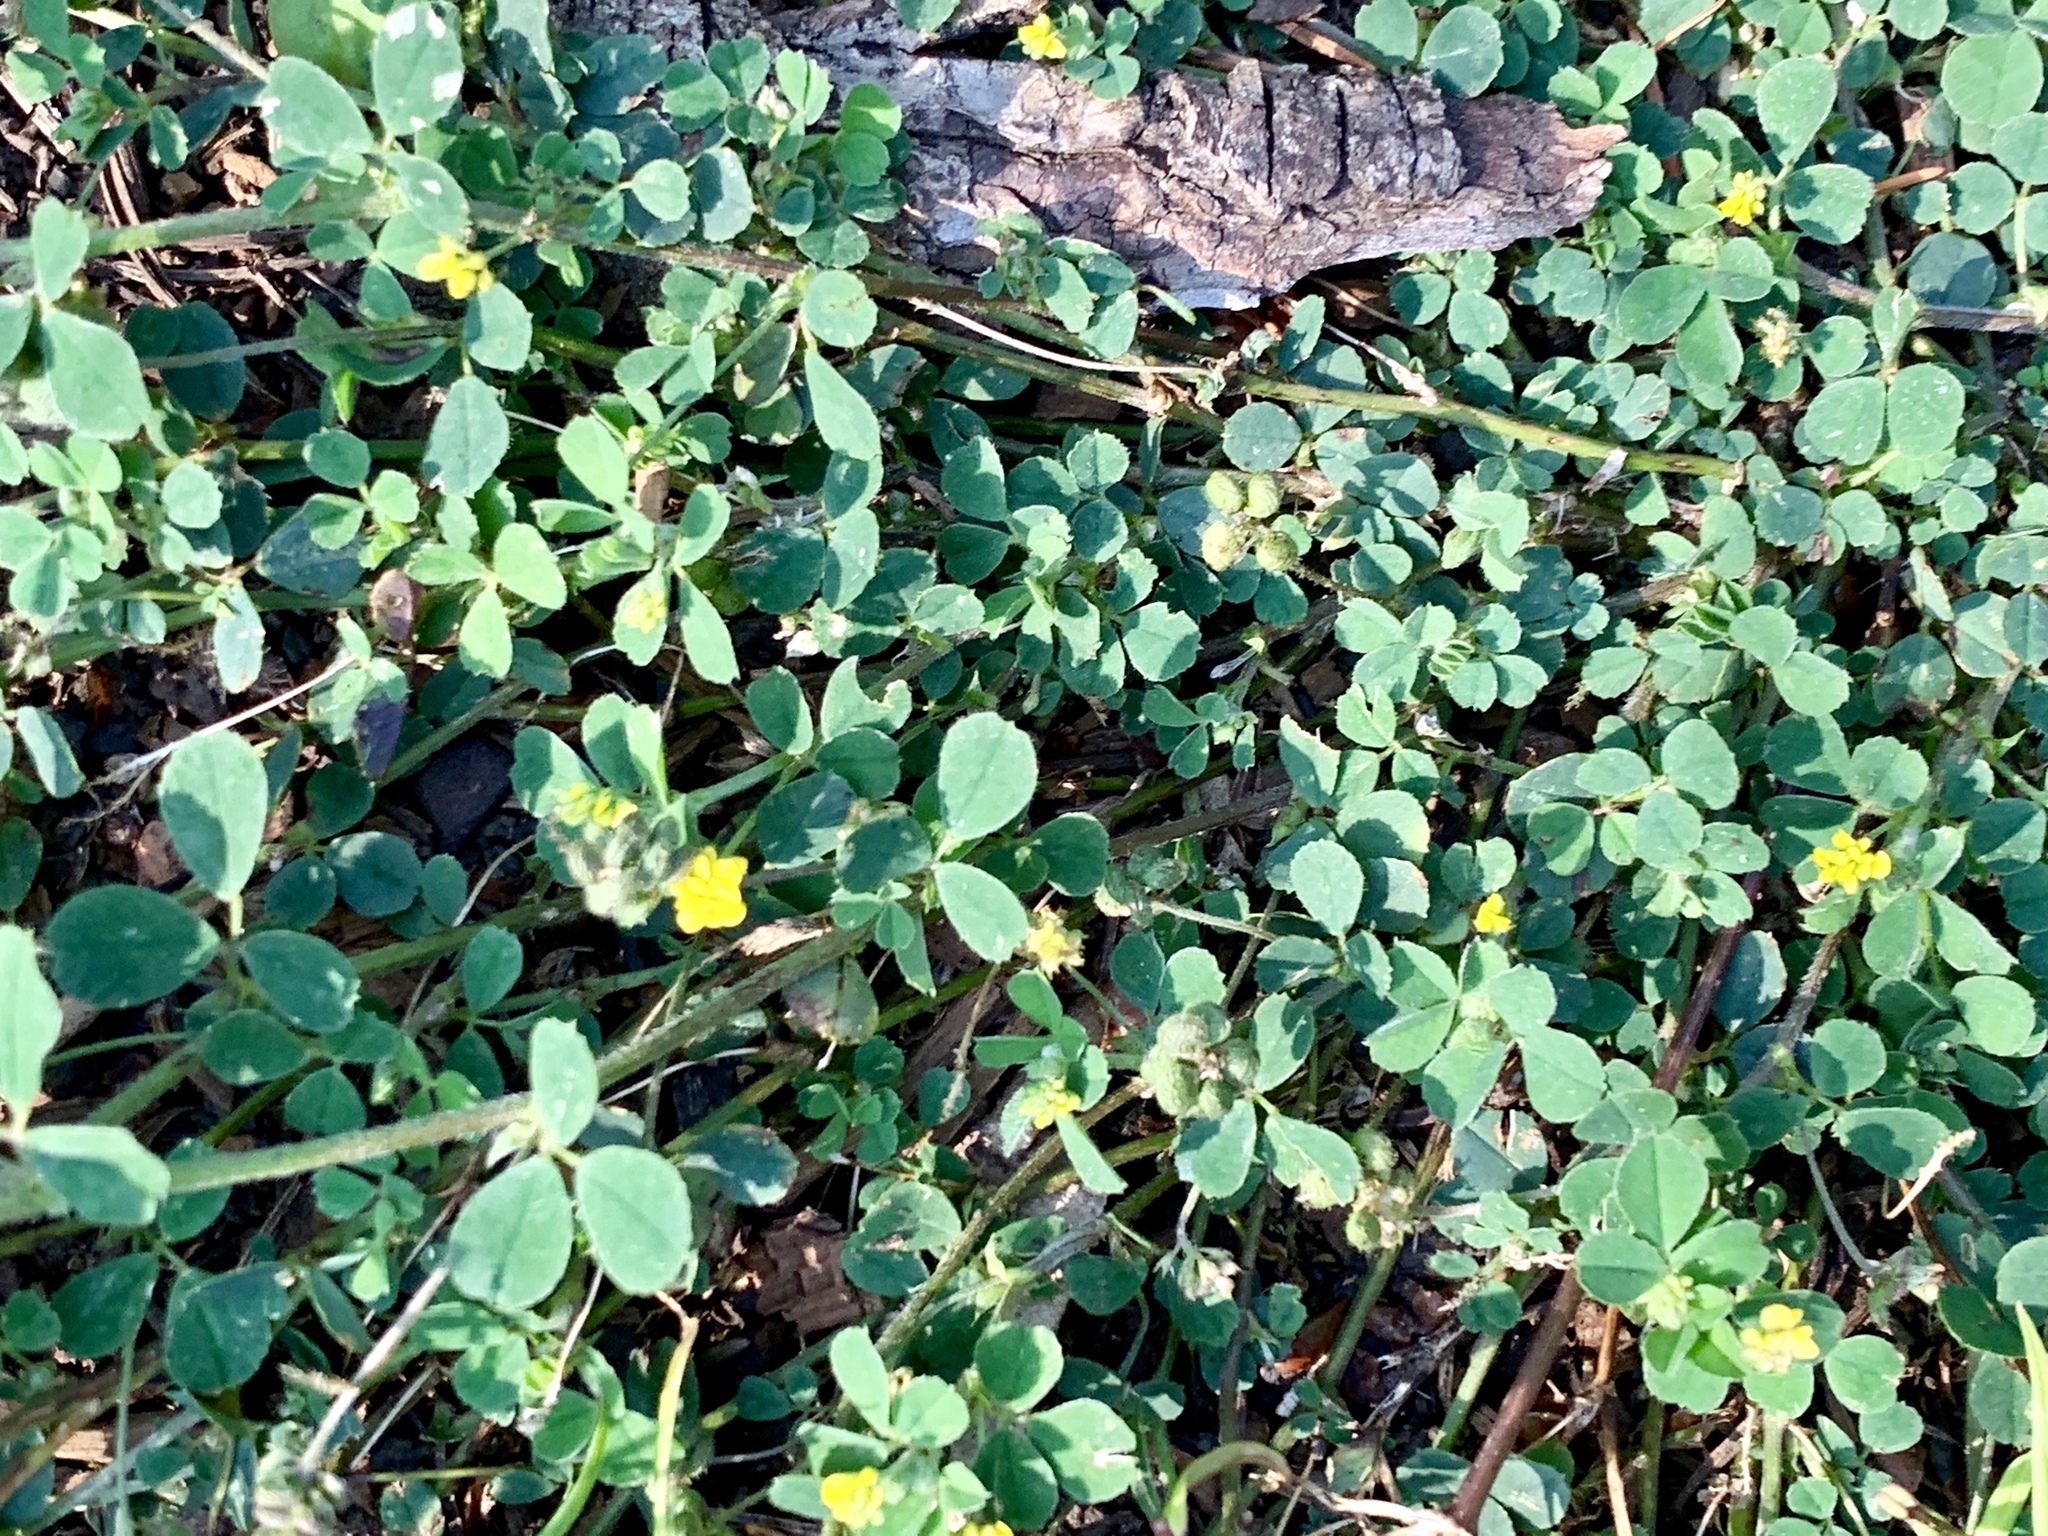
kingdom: Plantae
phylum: Tracheophyta
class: Magnoliopsida
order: Fabales
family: Fabaceae
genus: Medicago
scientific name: Medicago lupulina
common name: Black medick
